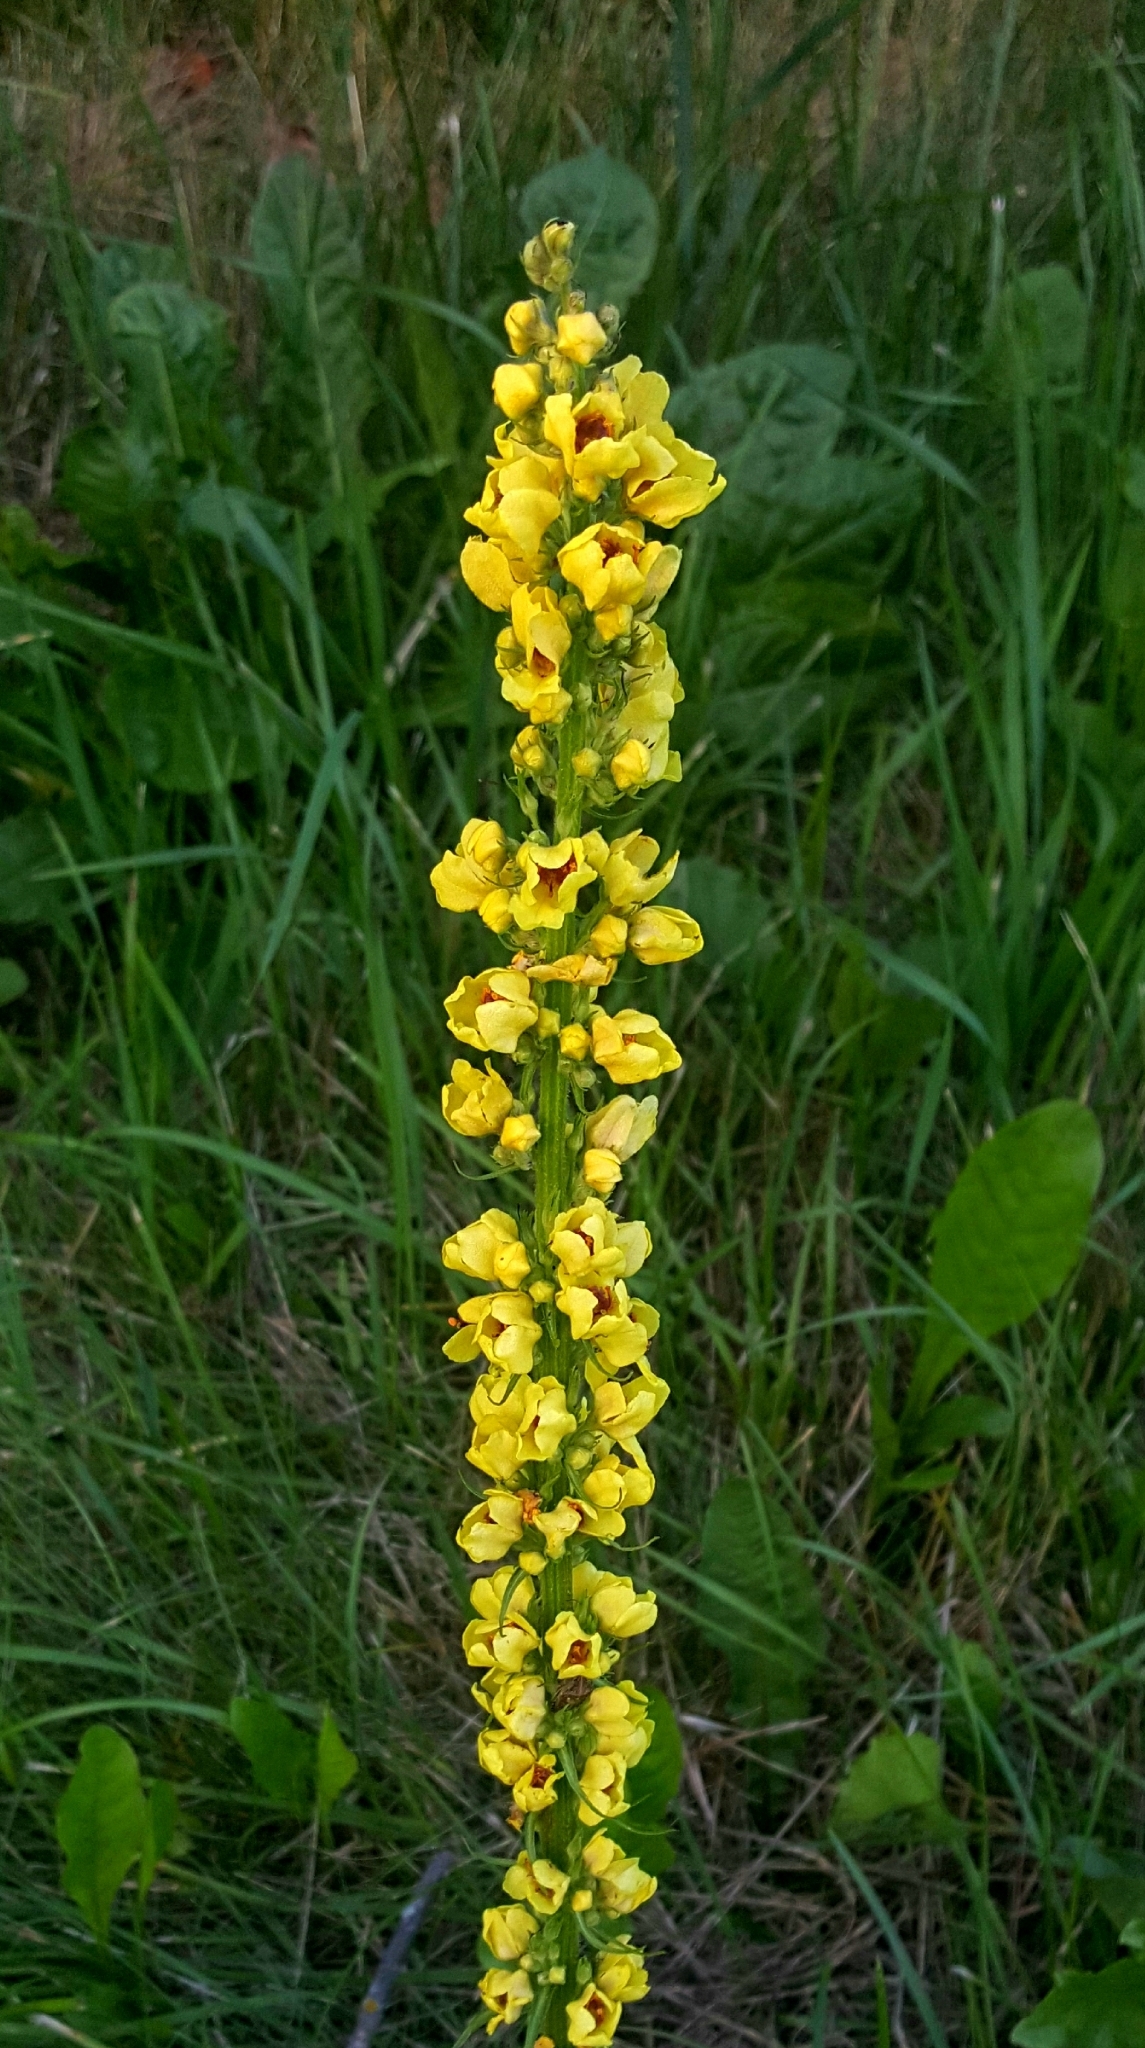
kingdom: Plantae
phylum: Tracheophyta
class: Magnoliopsida
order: Lamiales
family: Scrophulariaceae
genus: Verbascum
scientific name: Verbascum nigrum
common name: Dark mullein
